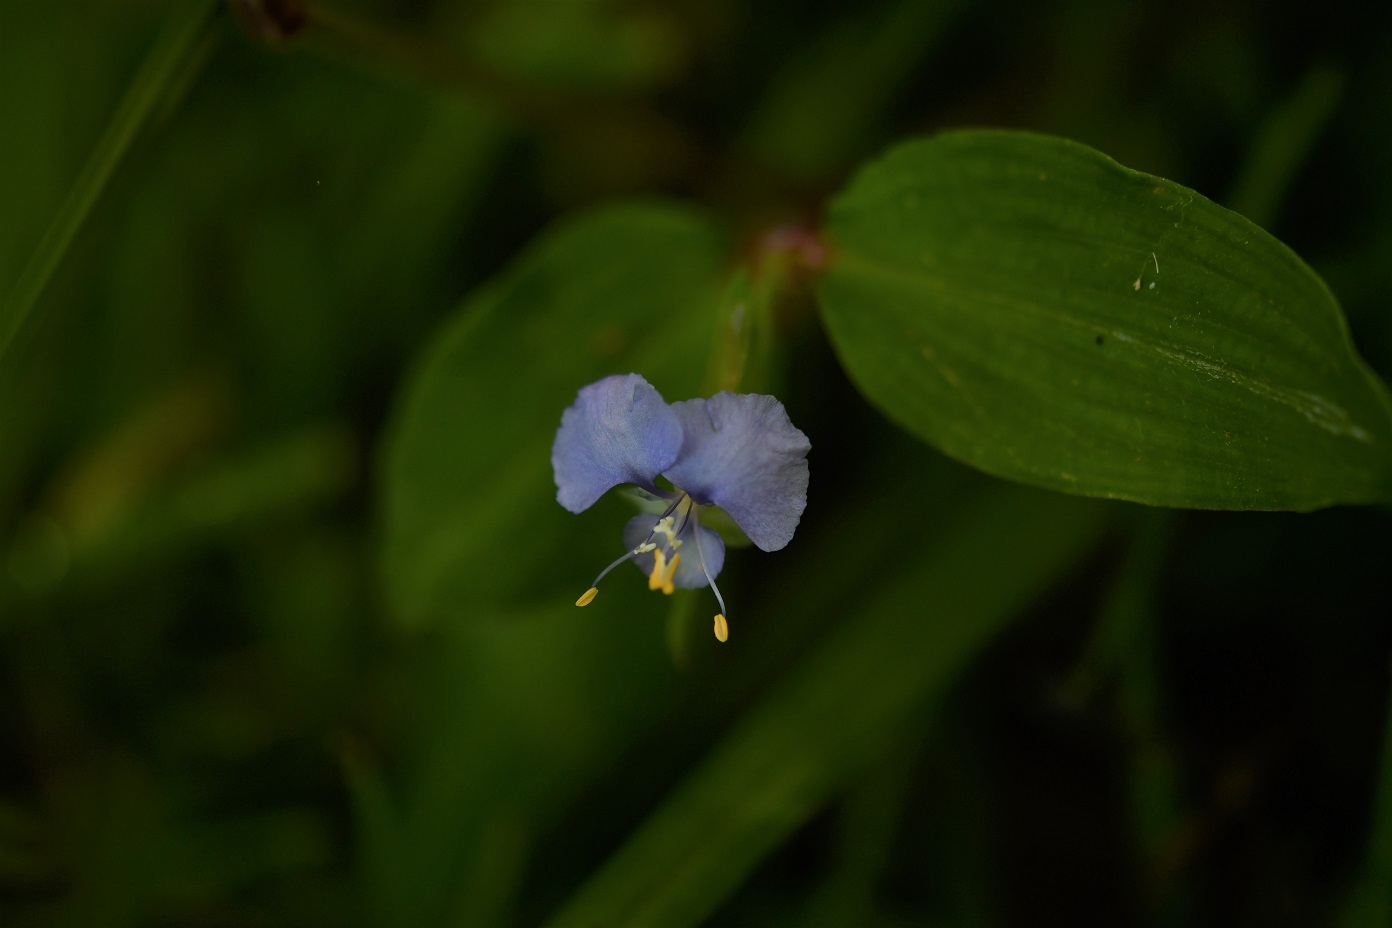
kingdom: Plantae
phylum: Tracheophyta
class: Liliopsida
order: Commelinales
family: Commelinaceae
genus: Commelina
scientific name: Commelina diffusa
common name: Climbing dayflower
